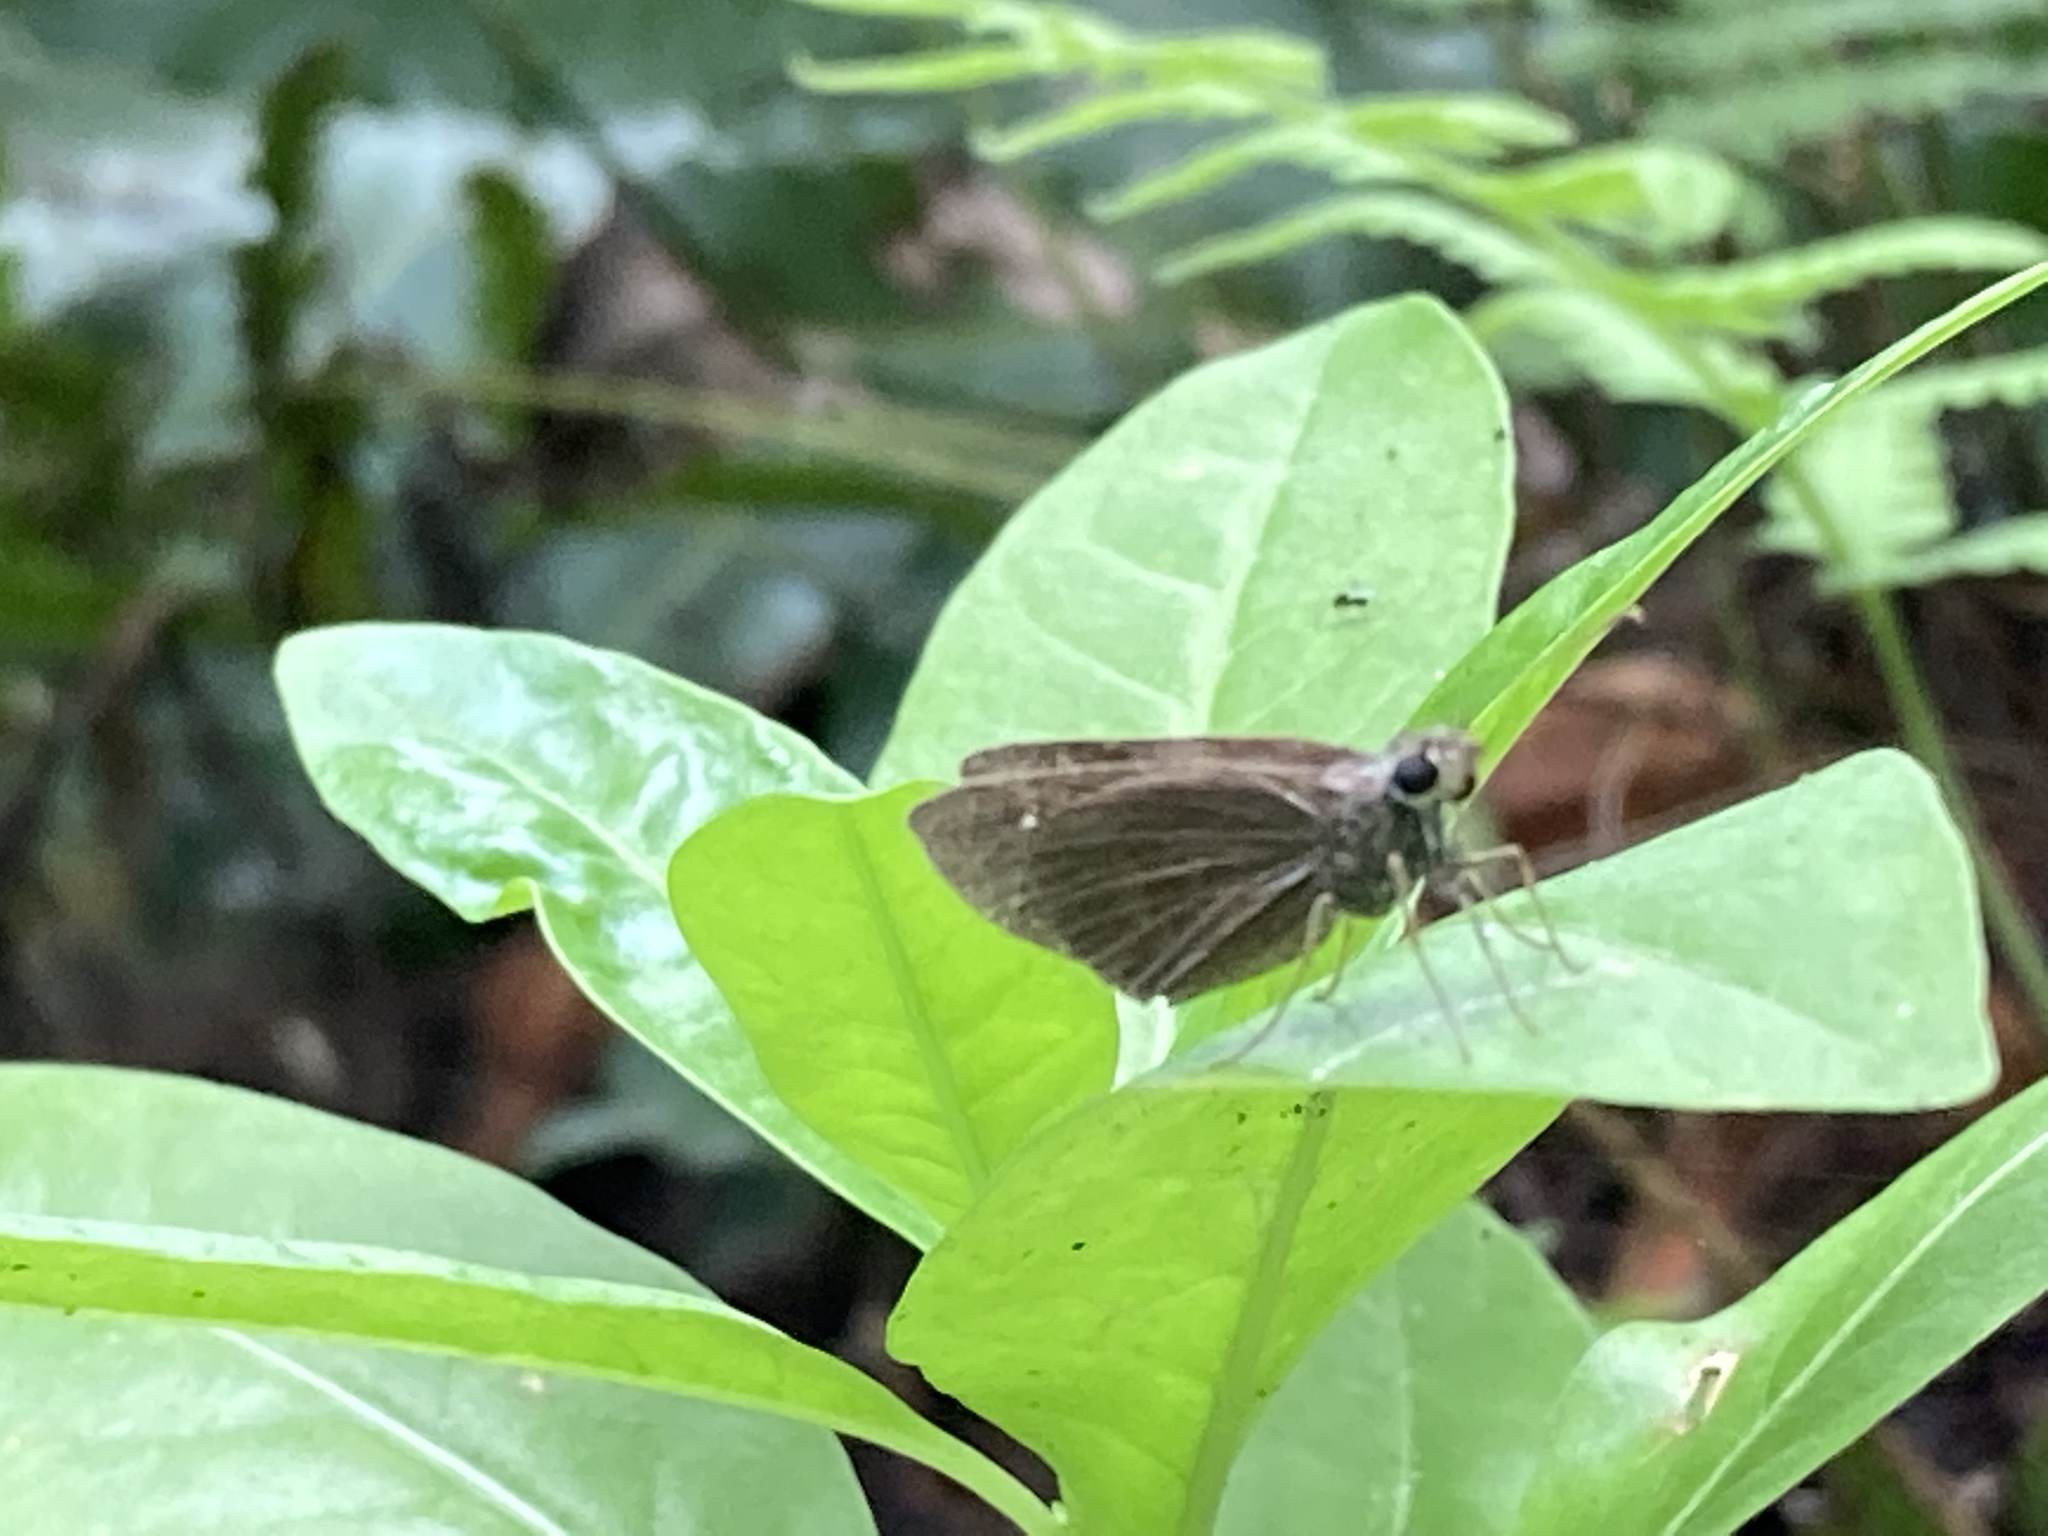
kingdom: Animalia
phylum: Arthropoda
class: Insecta
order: Lepidoptera
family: Hesperiidae
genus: Cymaenes
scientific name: Cymaenes tripunctus
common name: Dingy dotted skipper
